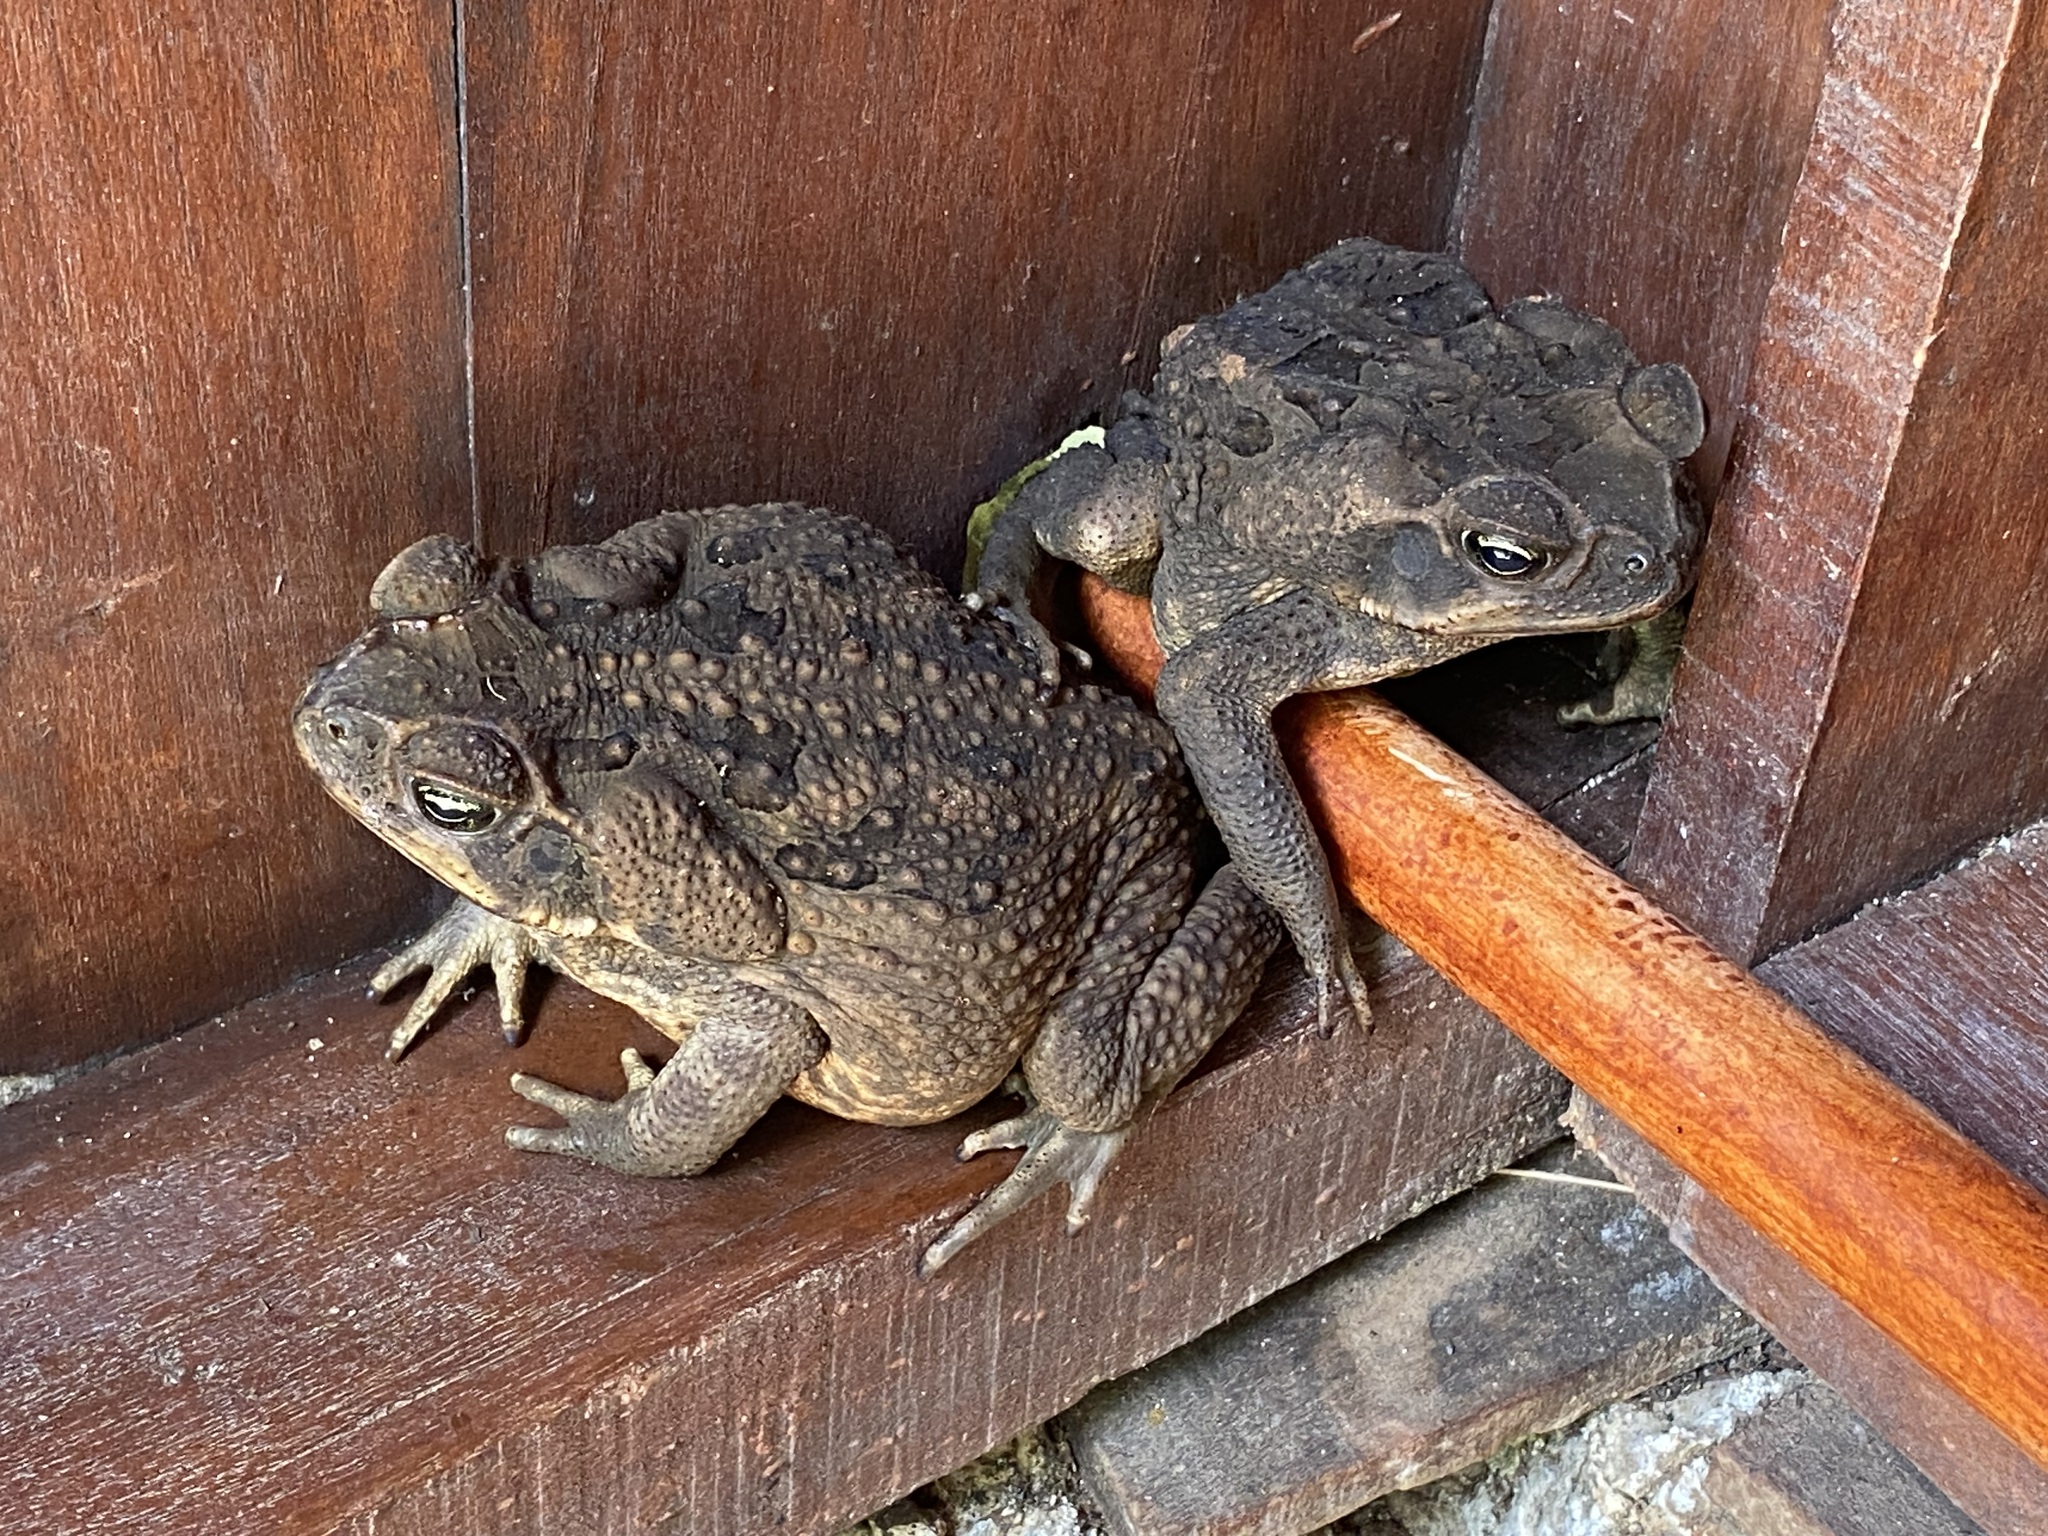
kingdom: Animalia
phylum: Chordata
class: Amphibia
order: Anura
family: Bufonidae
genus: Rhinella
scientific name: Rhinella horribilis
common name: Mesoamerican cane toad
